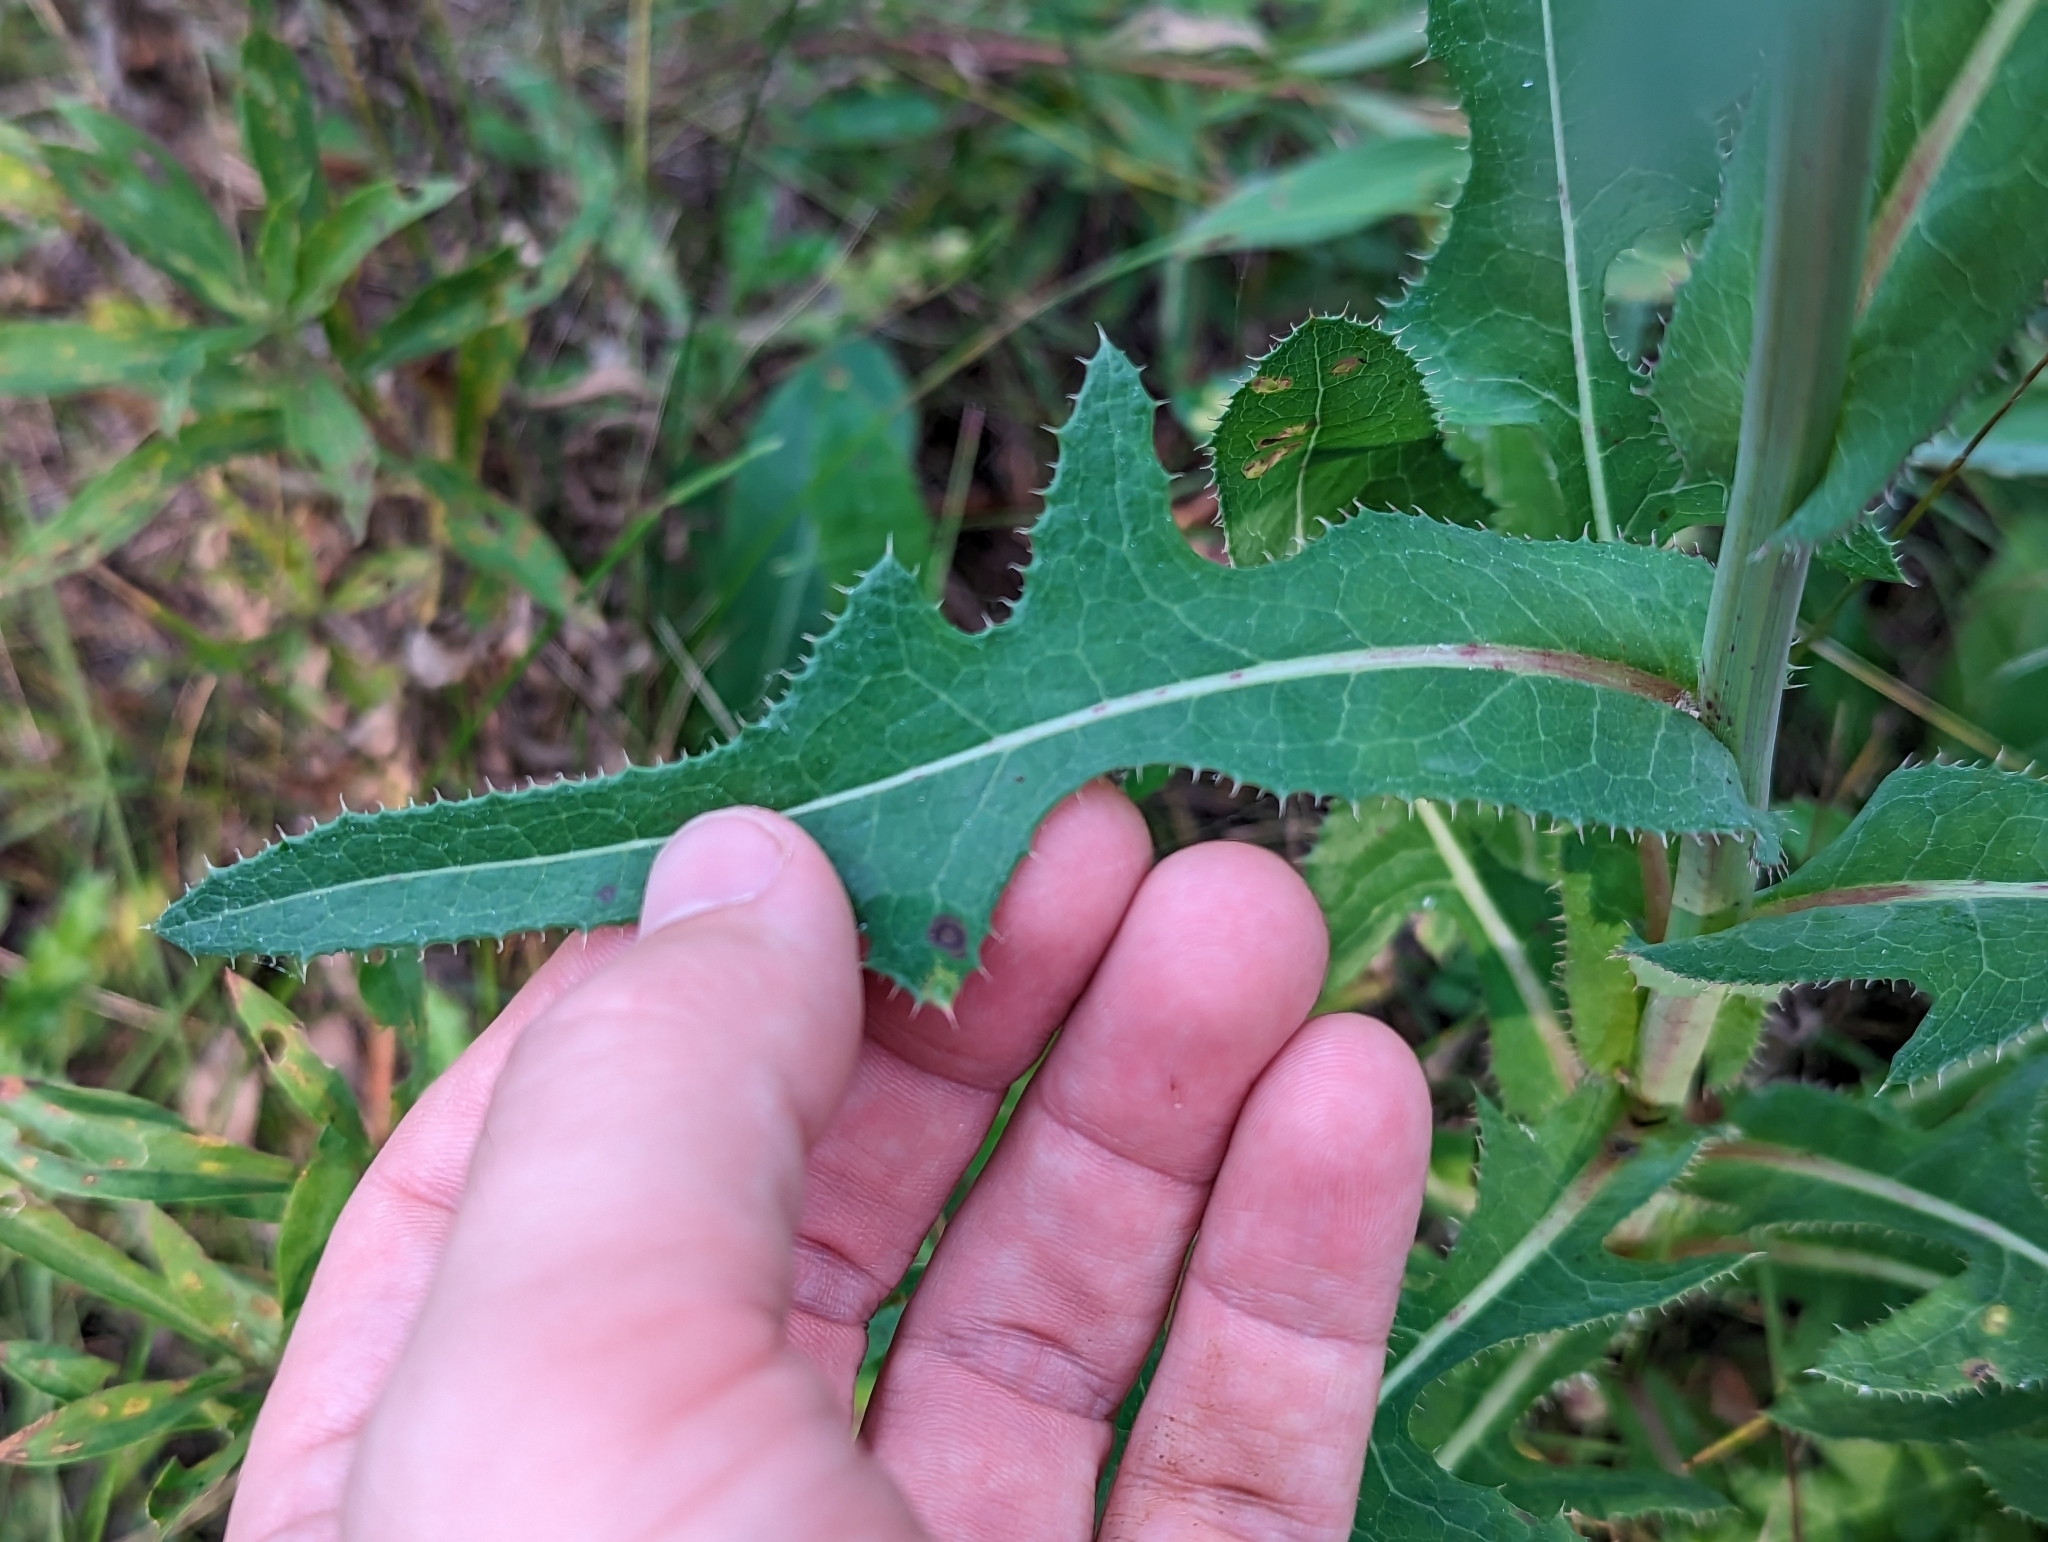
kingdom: Plantae
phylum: Tracheophyta
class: Magnoliopsida
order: Asterales
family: Asteraceae
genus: Sonchus
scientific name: Sonchus arvensis
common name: Perennial sow-thistle
